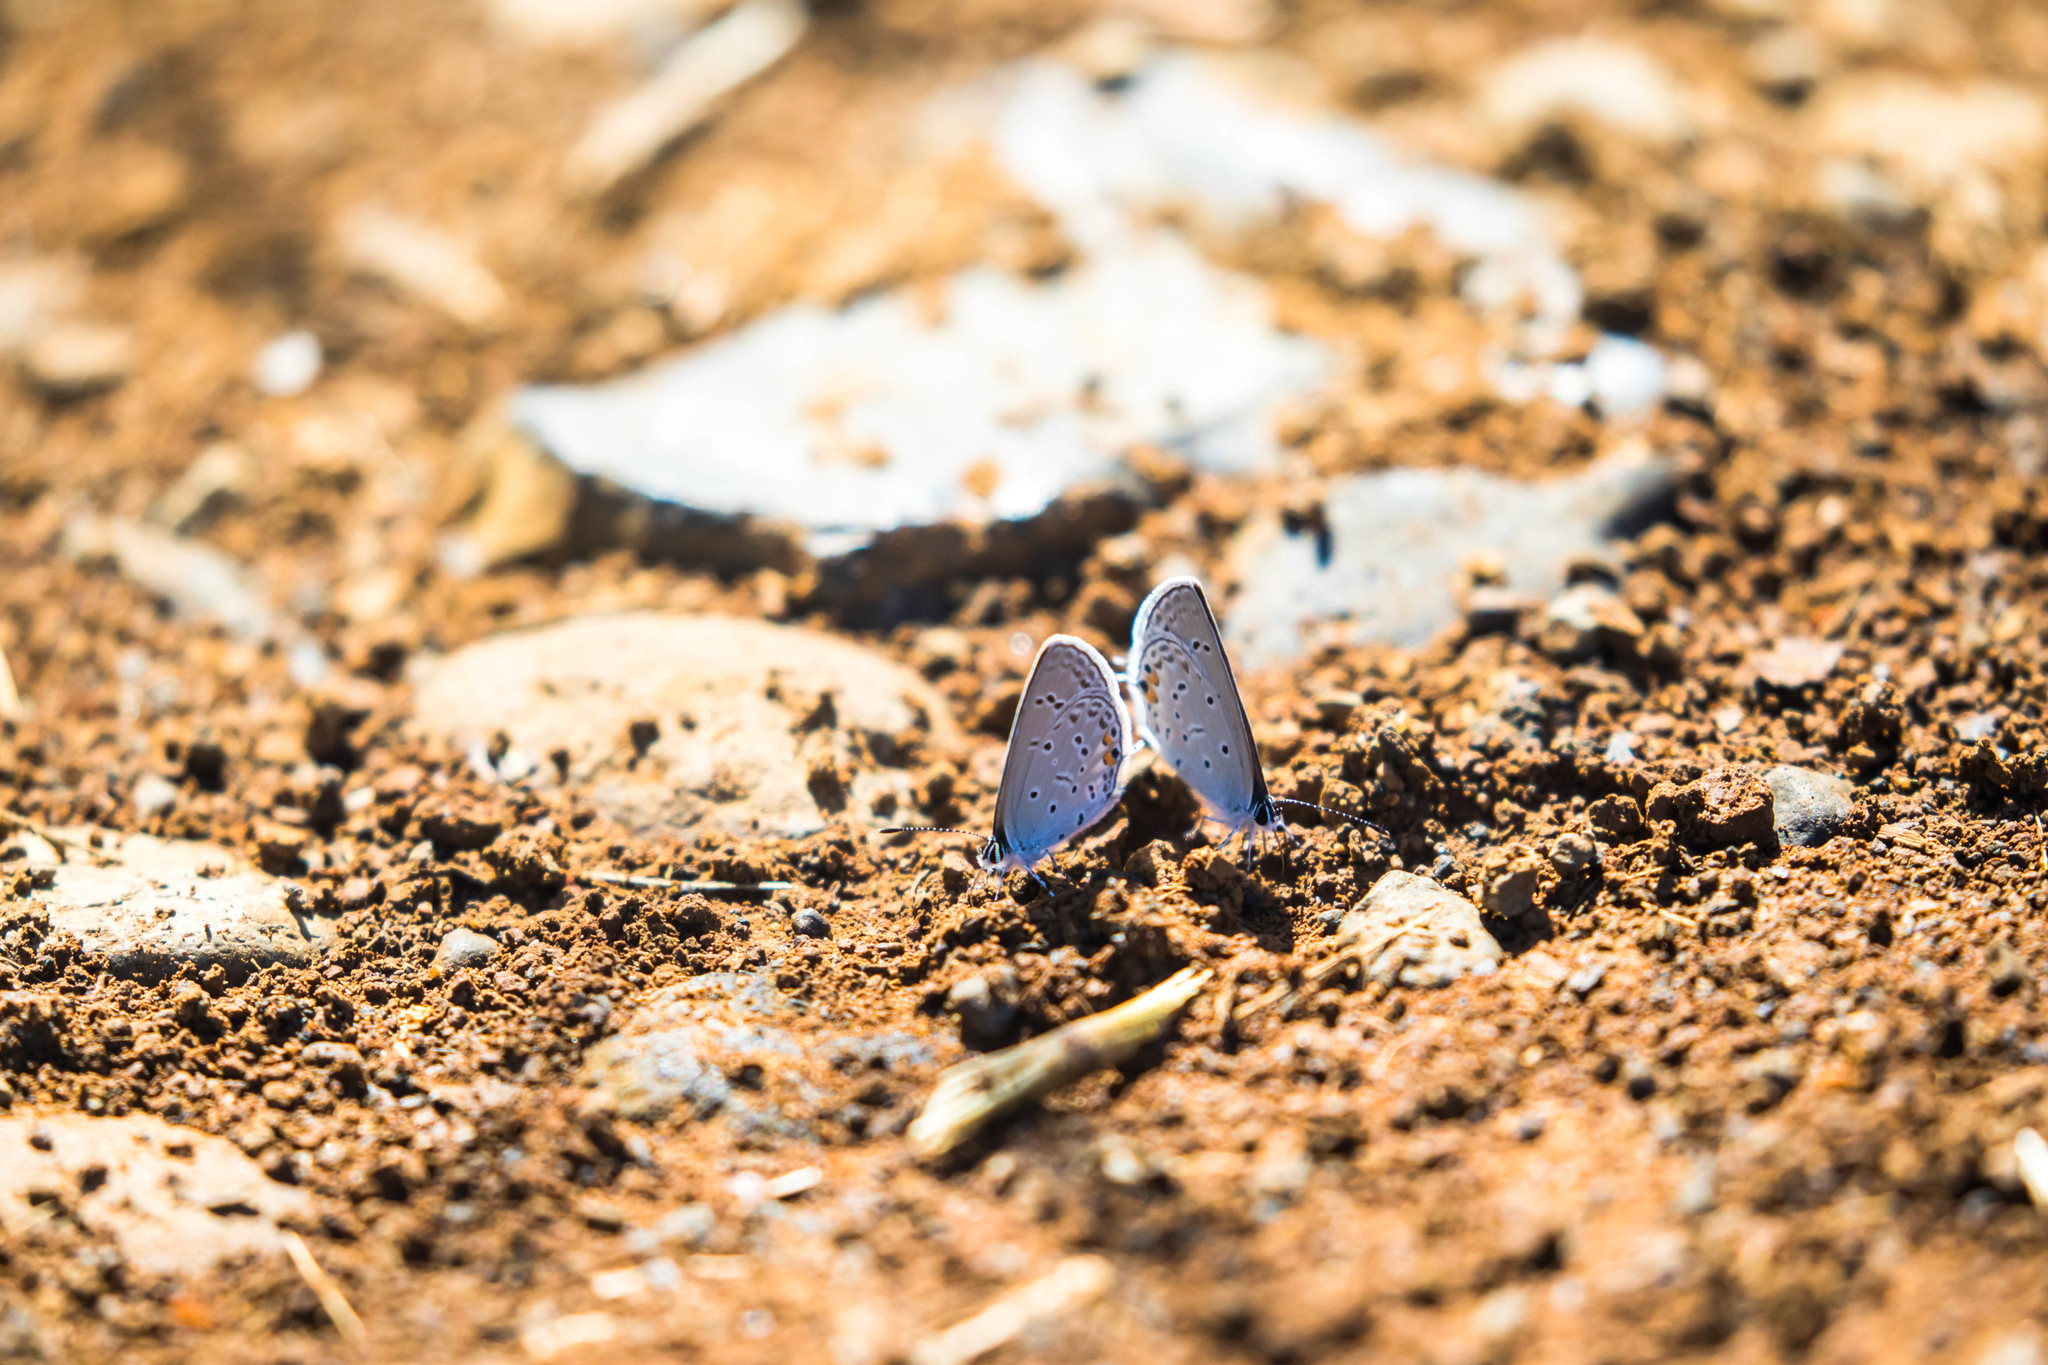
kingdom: Animalia
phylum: Arthropoda
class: Insecta
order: Lepidoptera
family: Lycaenidae
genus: Elkalyce
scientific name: Elkalyce comyntas
